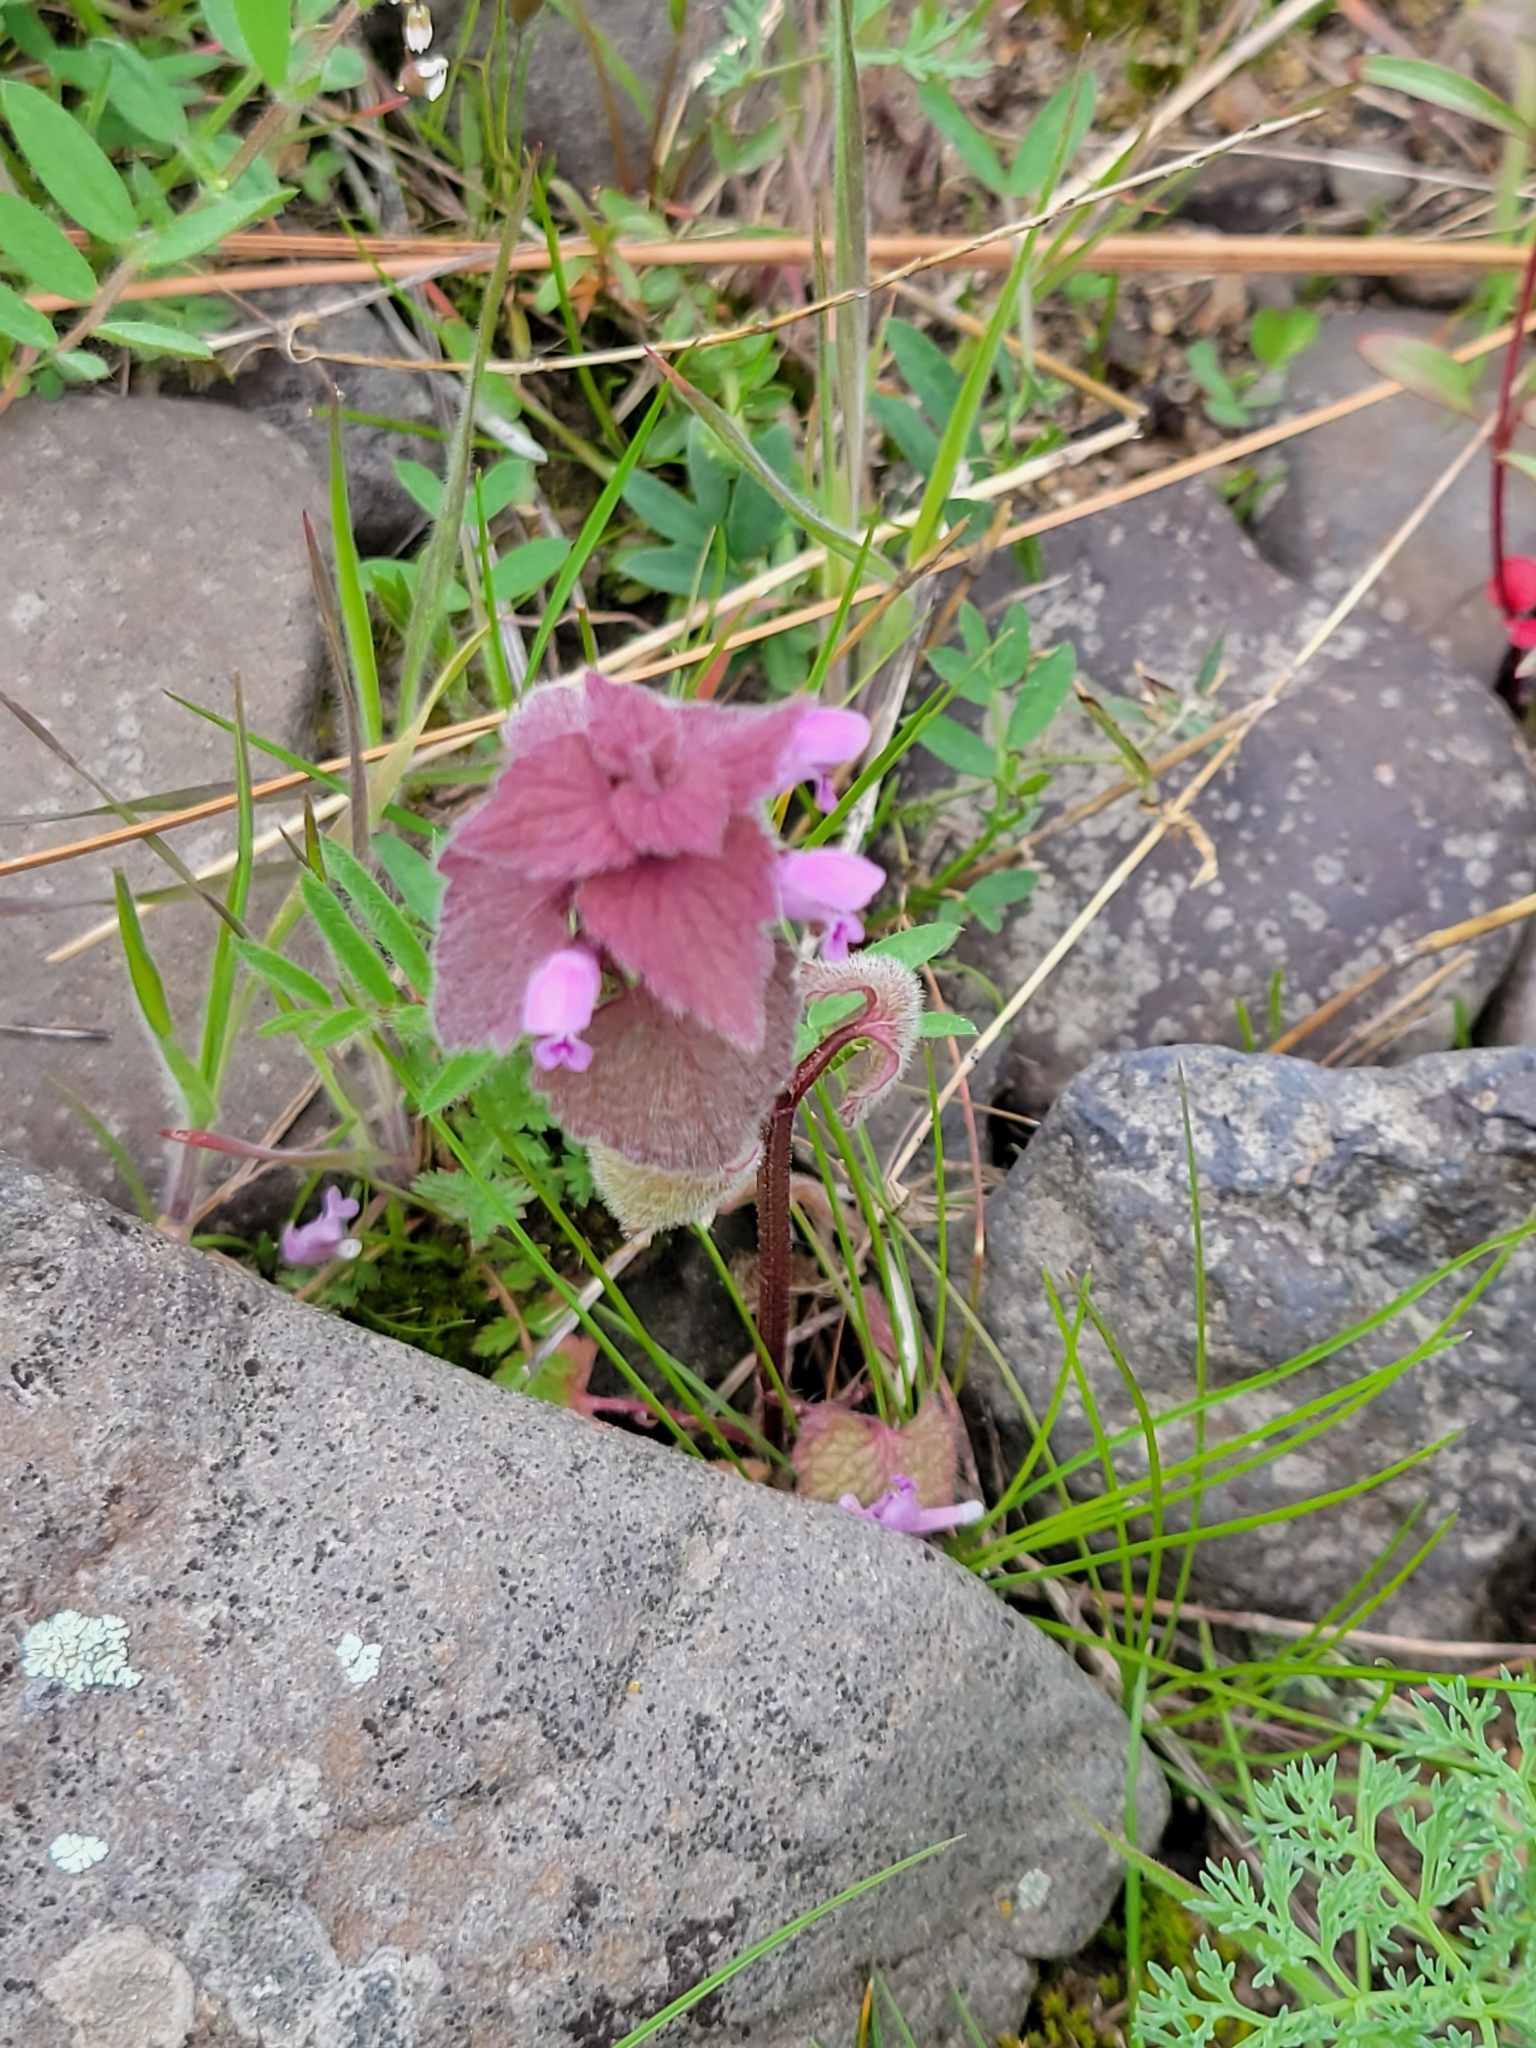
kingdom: Plantae
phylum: Tracheophyta
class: Magnoliopsida
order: Lamiales
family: Lamiaceae
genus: Lamium
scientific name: Lamium purpureum
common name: Red dead-nettle
